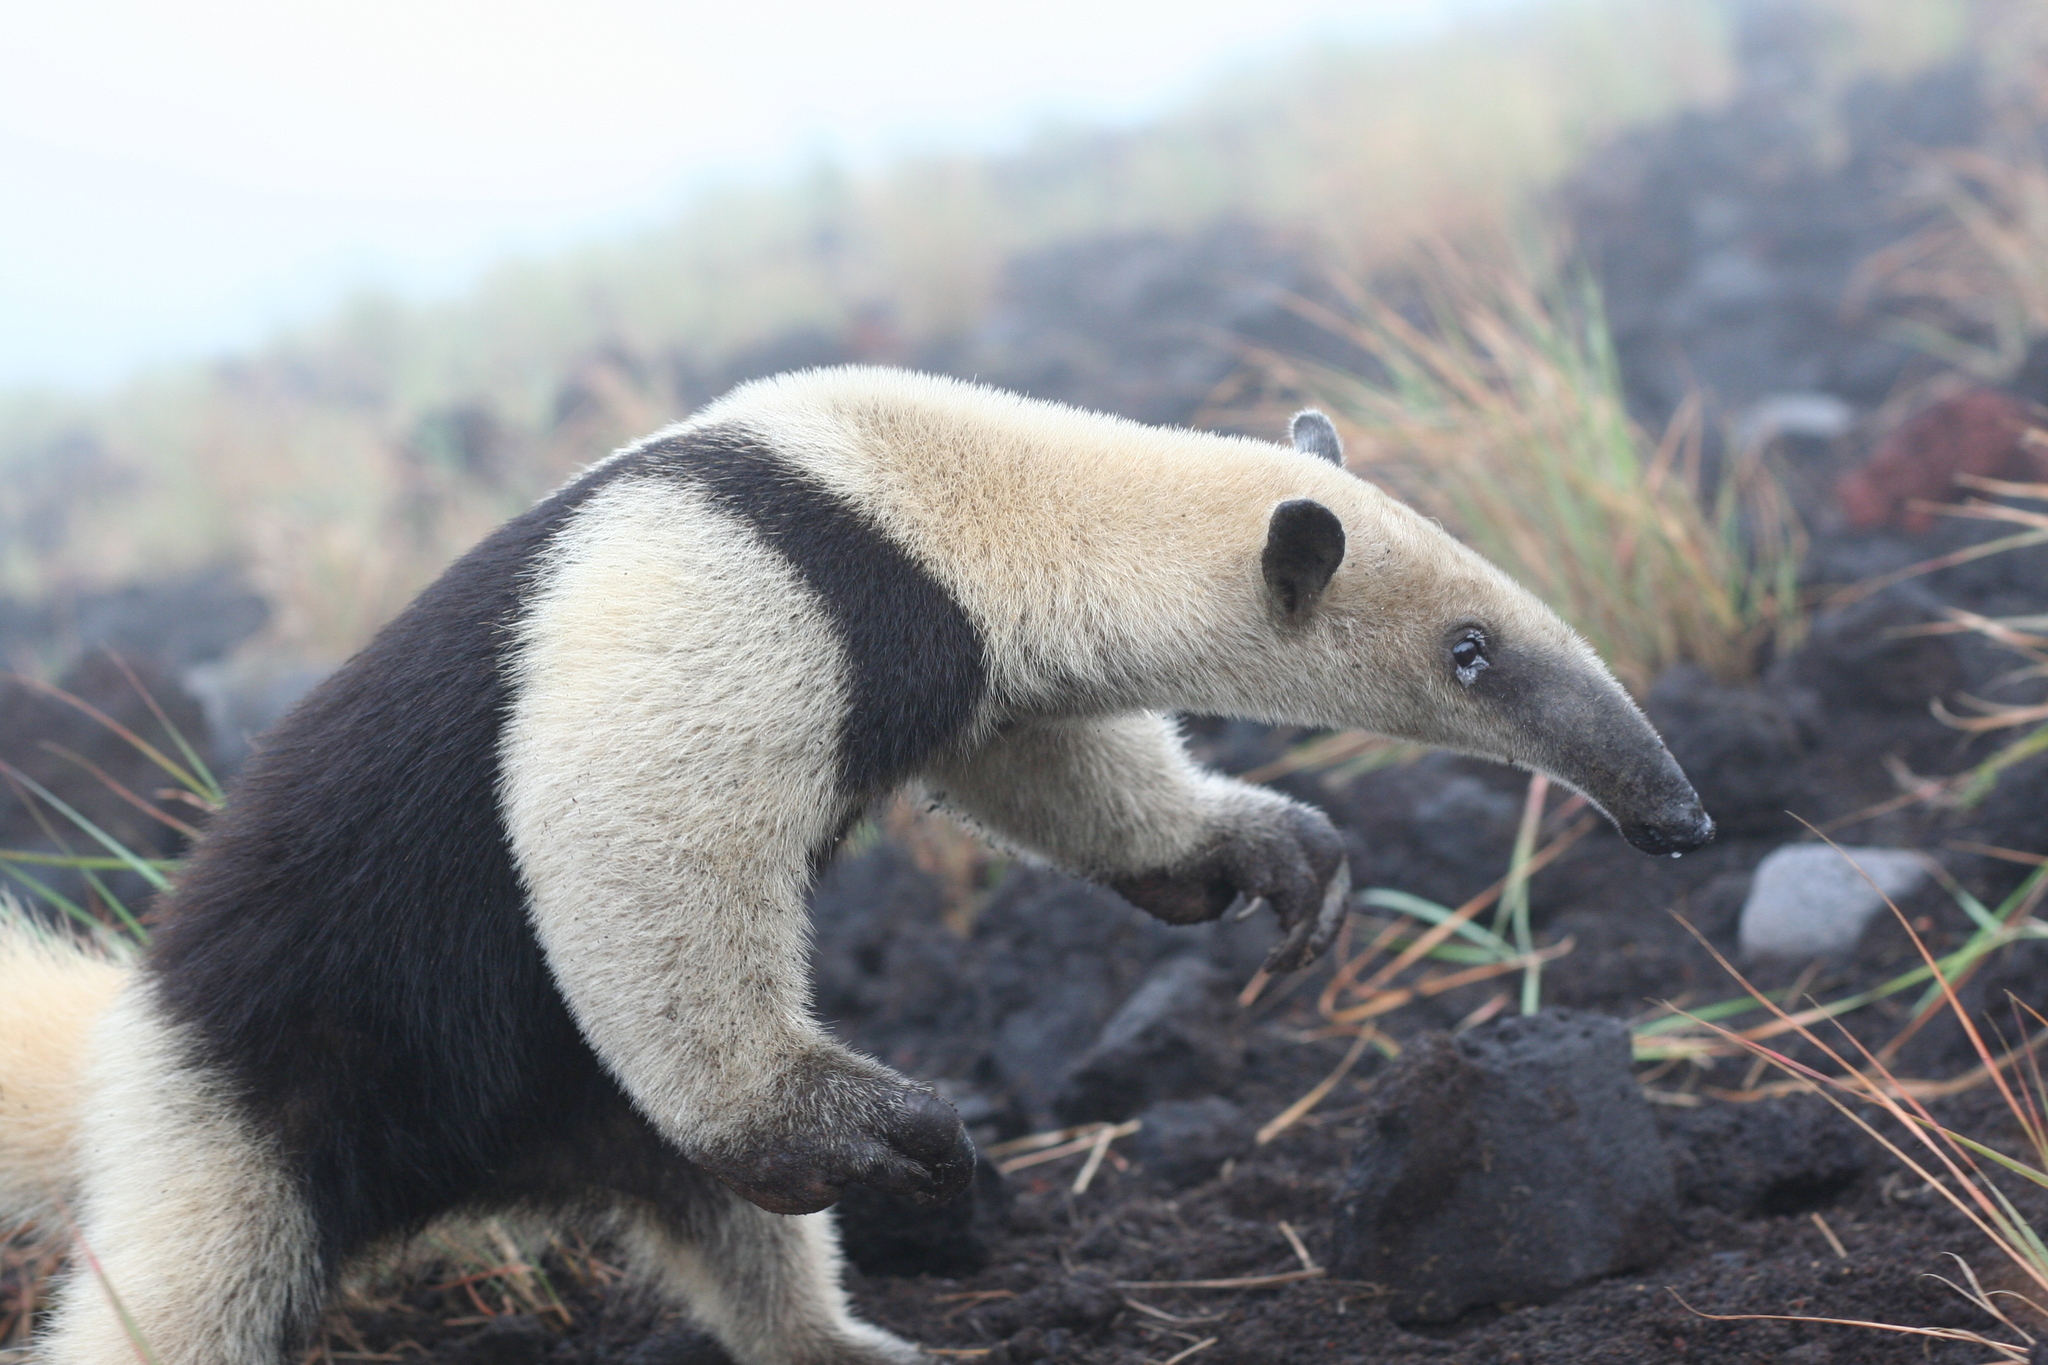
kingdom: Animalia
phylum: Chordata
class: Mammalia
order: Pilosa
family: Myrmecophagidae
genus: Tamandua
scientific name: Tamandua mexicana
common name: Northern tamandua
